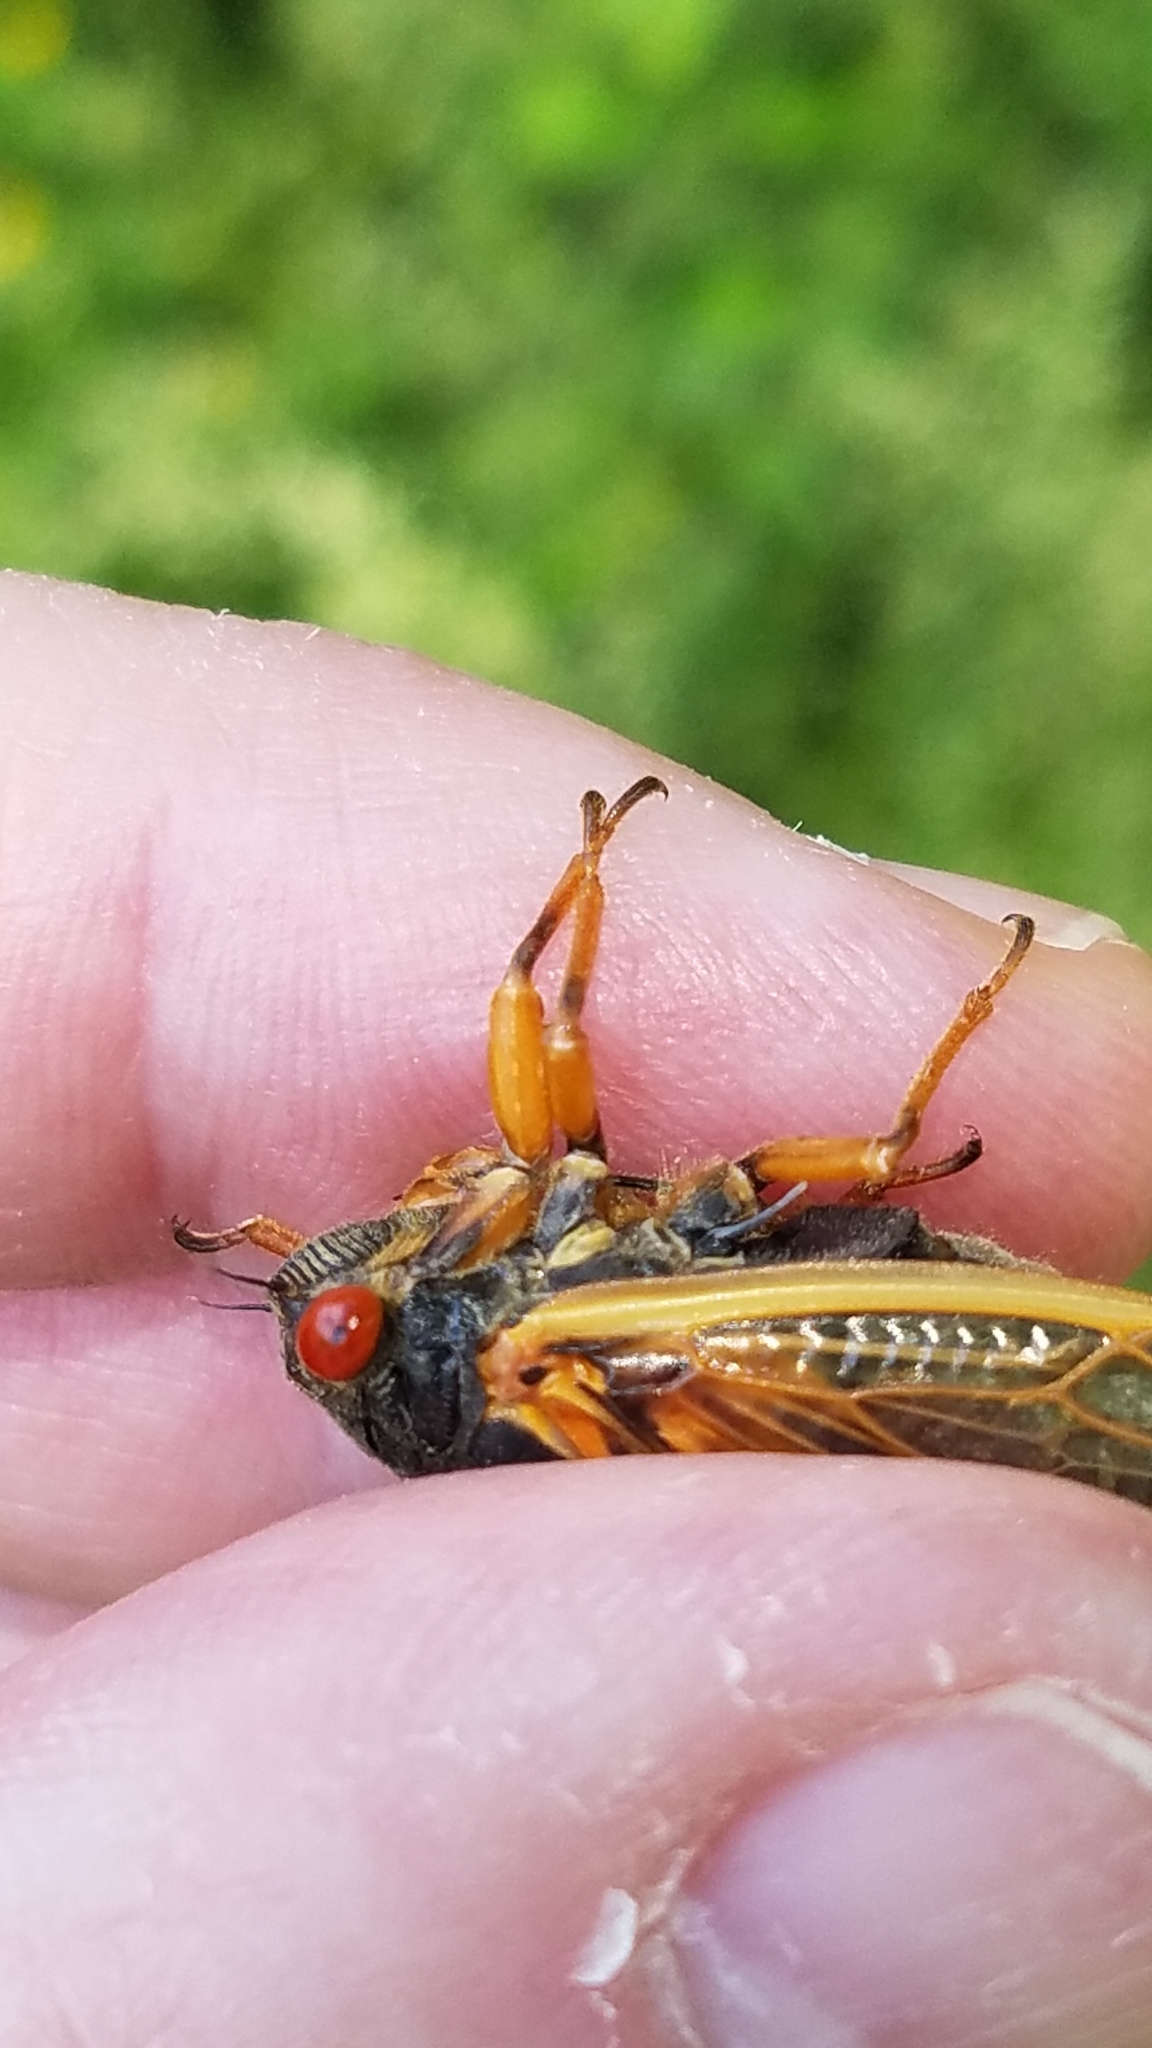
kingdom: Animalia
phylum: Arthropoda
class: Insecta
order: Hemiptera
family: Cicadidae
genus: Magicicada
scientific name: Magicicada cassini
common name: Cassin's 17-year cicada
